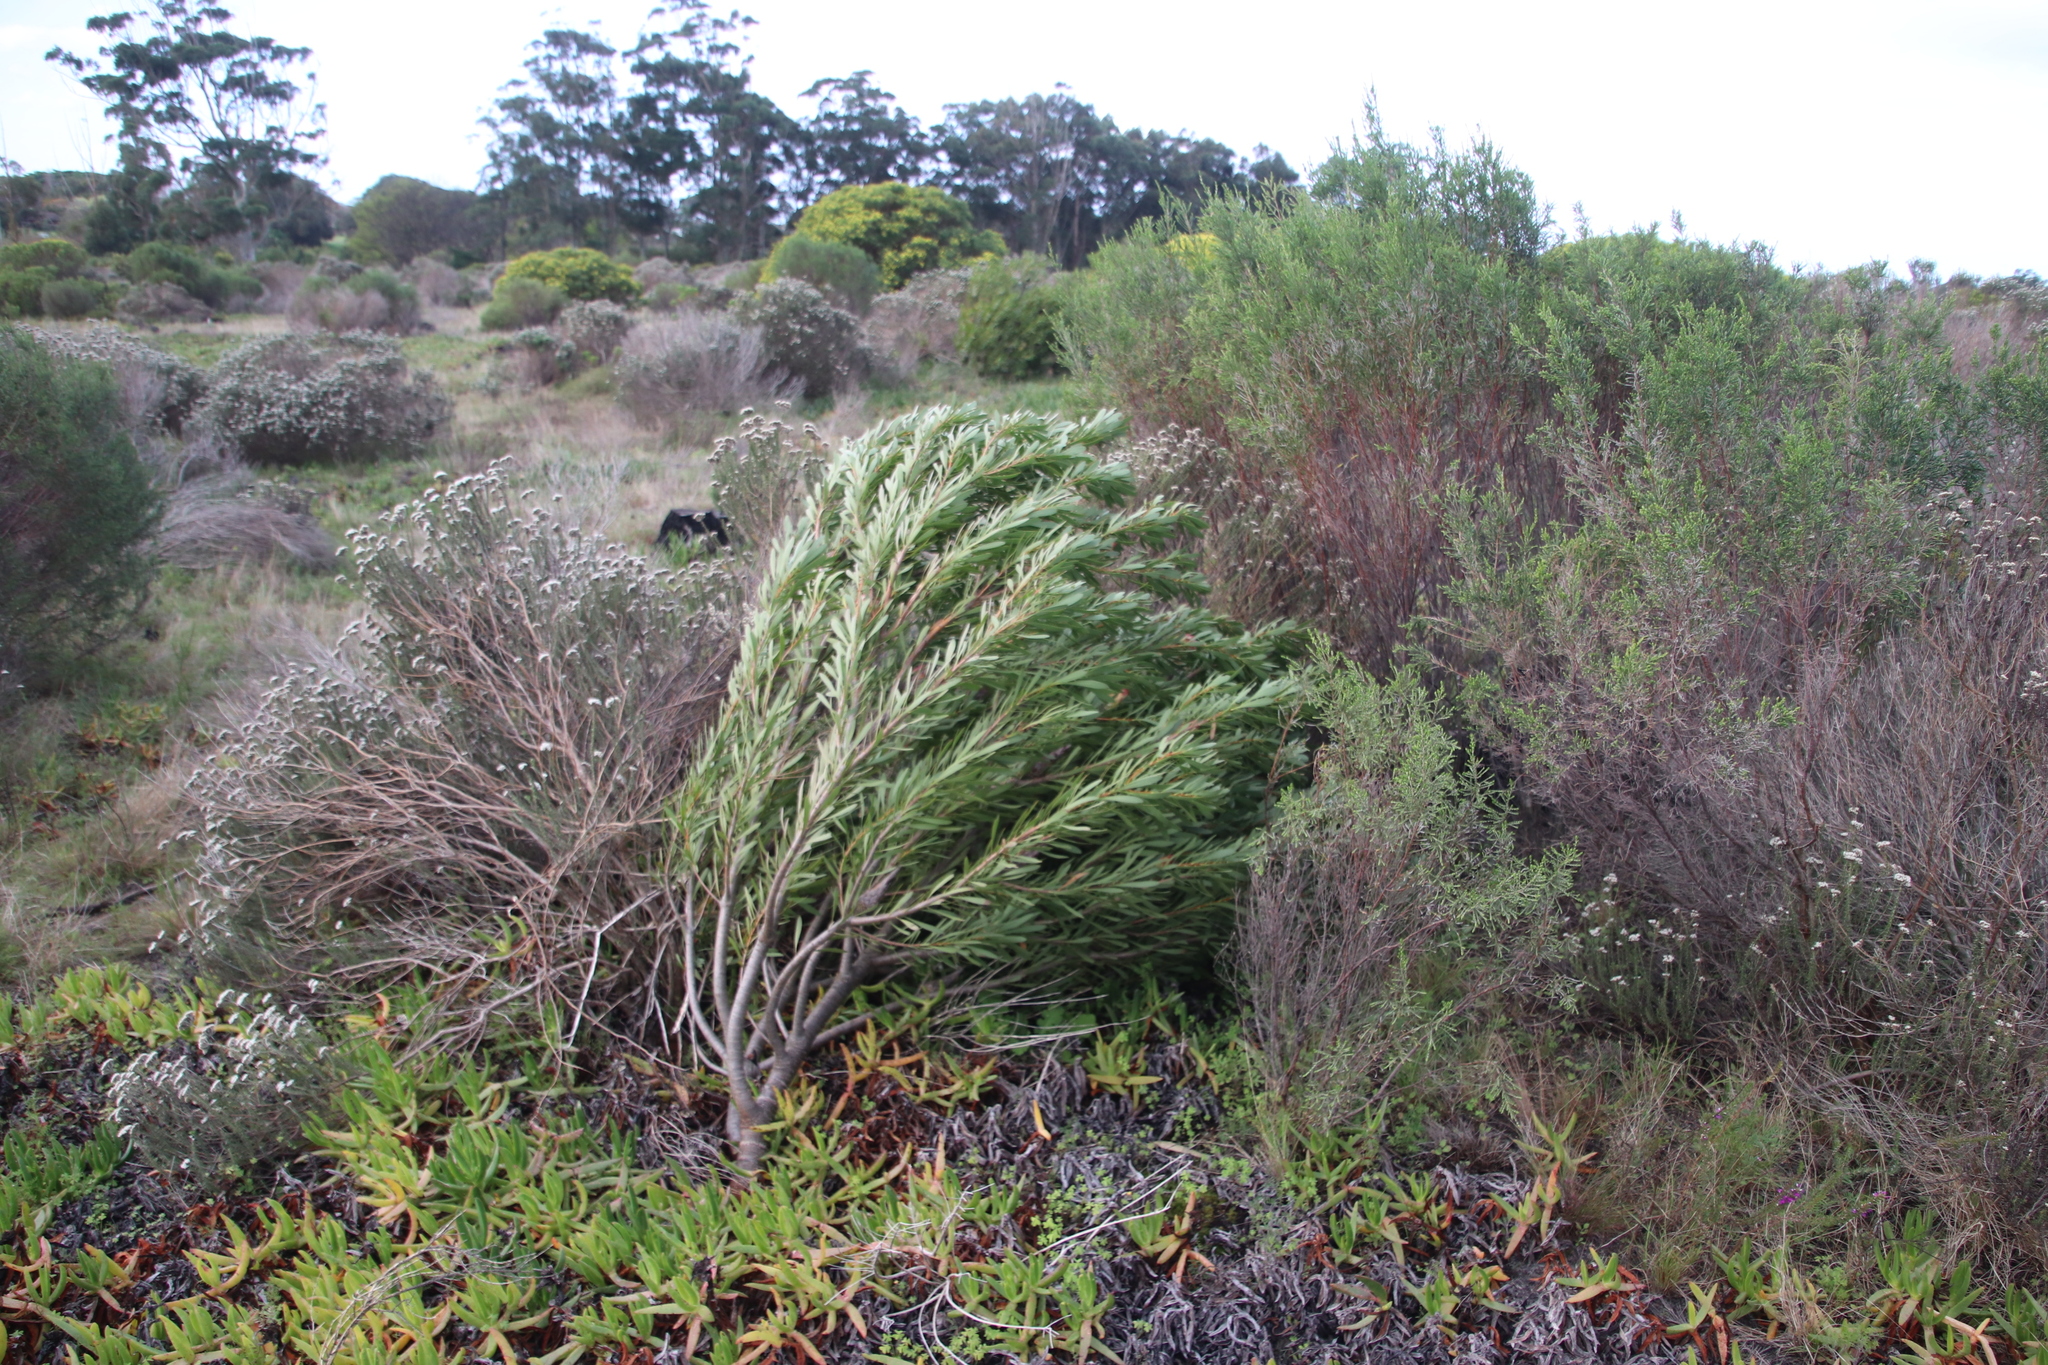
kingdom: Plantae
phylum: Tracheophyta
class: Magnoliopsida
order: Proteales
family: Proteaceae
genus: Protea
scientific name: Protea repens
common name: Sugarbush
